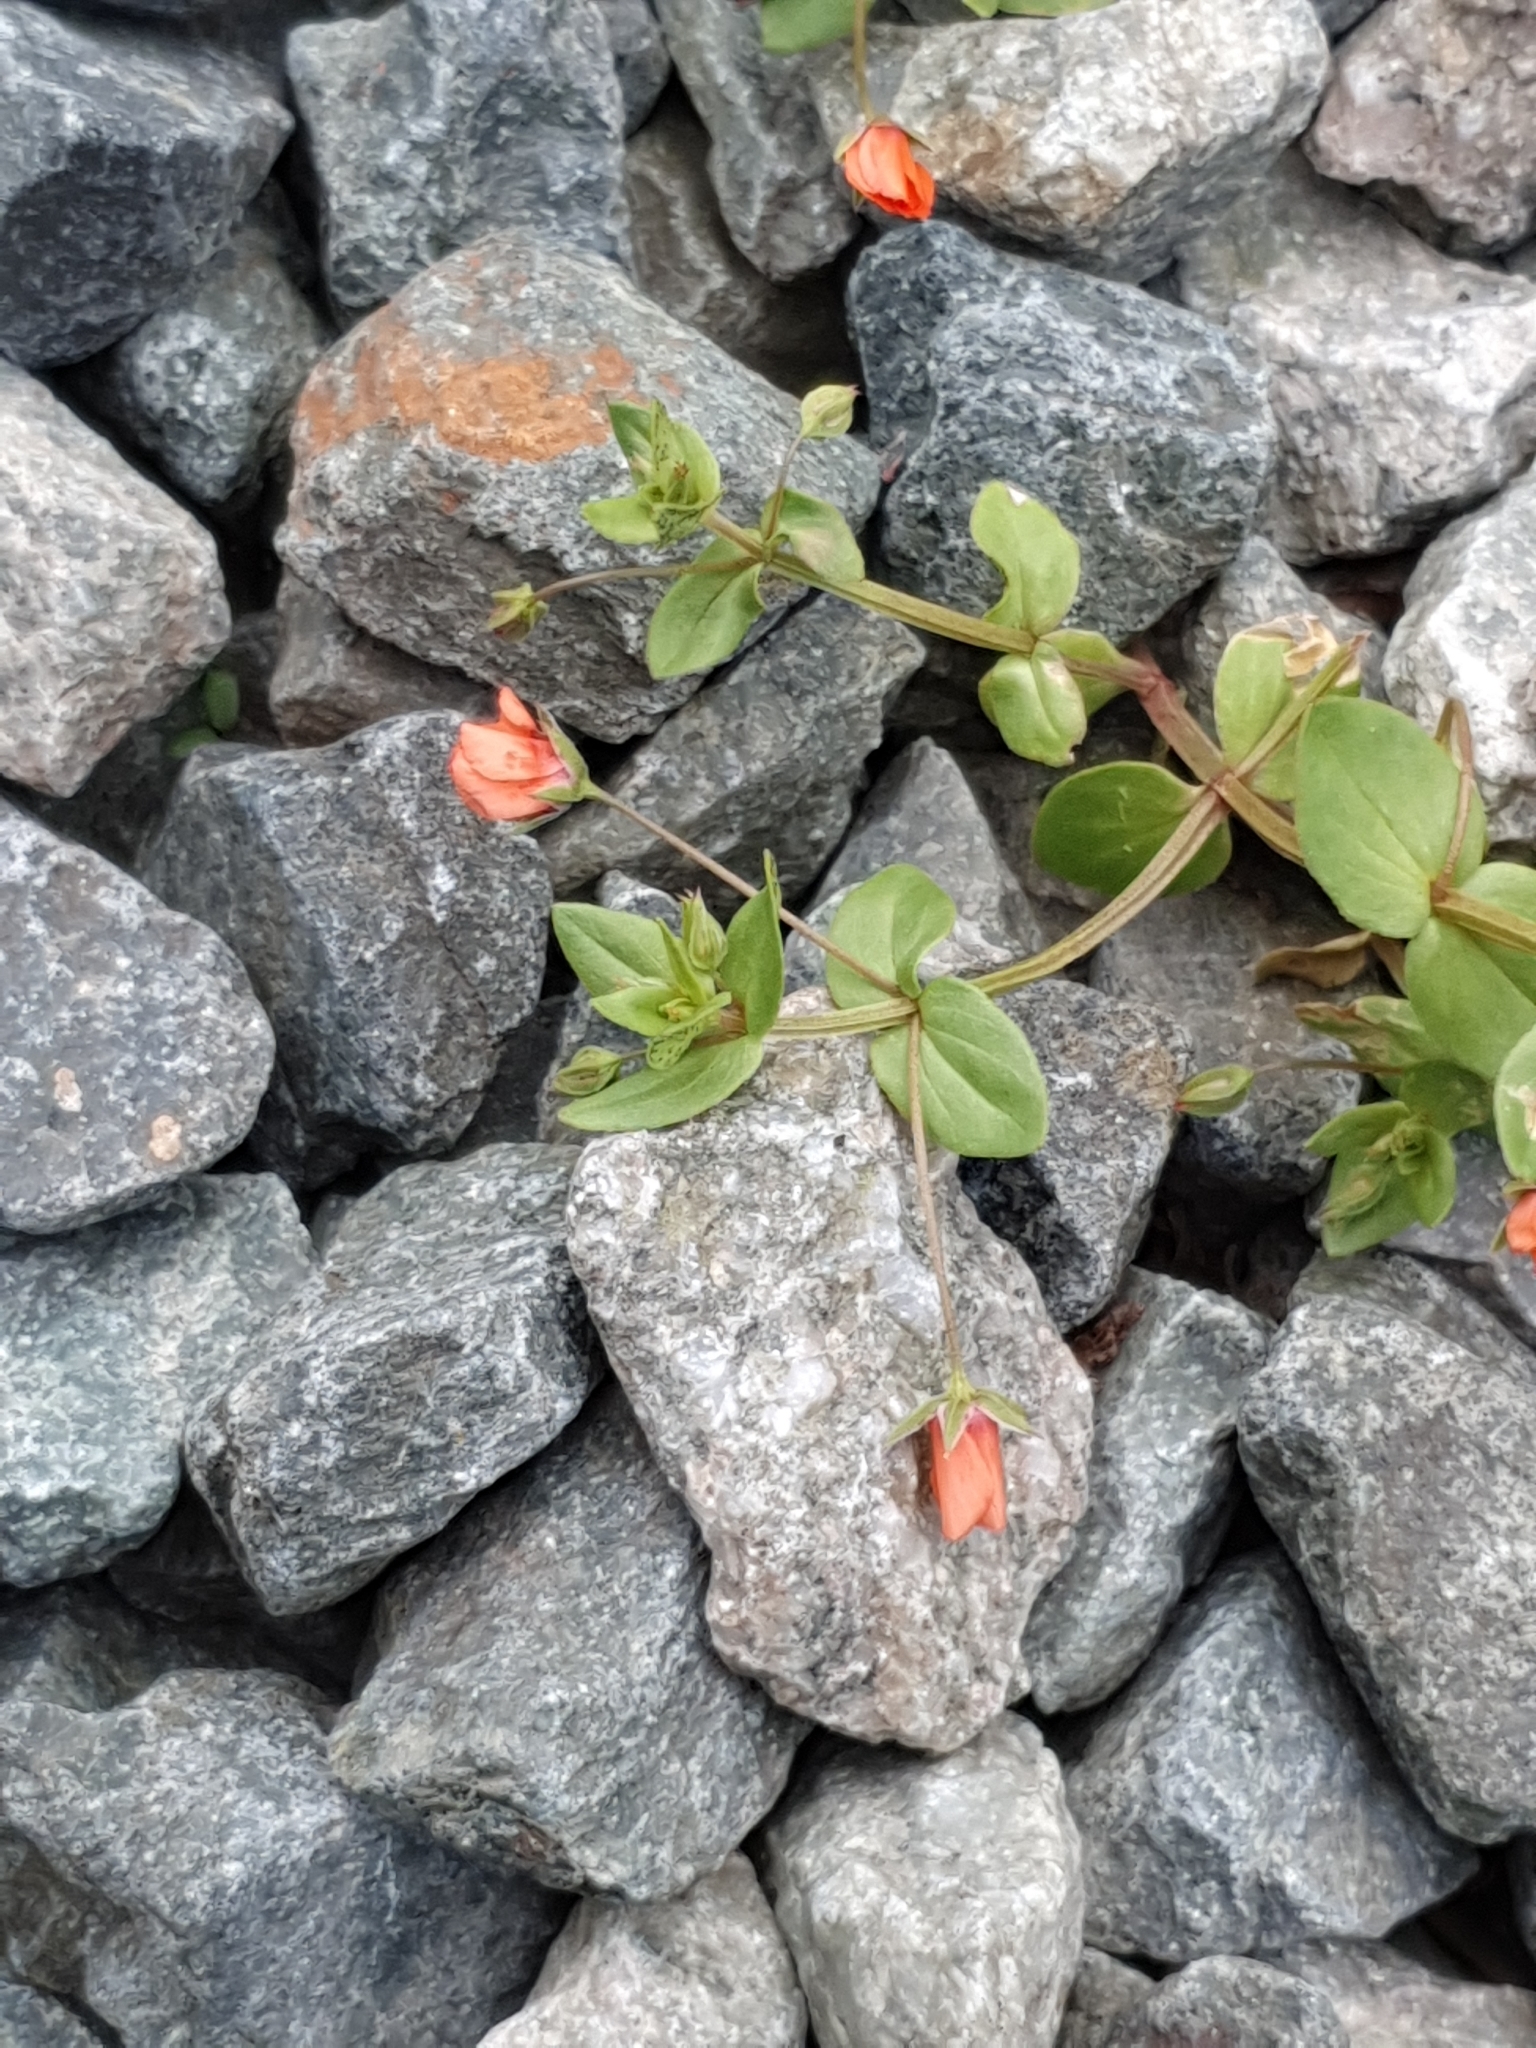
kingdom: Plantae
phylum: Tracheophyta
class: Magnoliopsida
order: Ericales
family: Primulaceae
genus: Lysimachia
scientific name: Lysimachia arvensis
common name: Scarlet pimpernel
